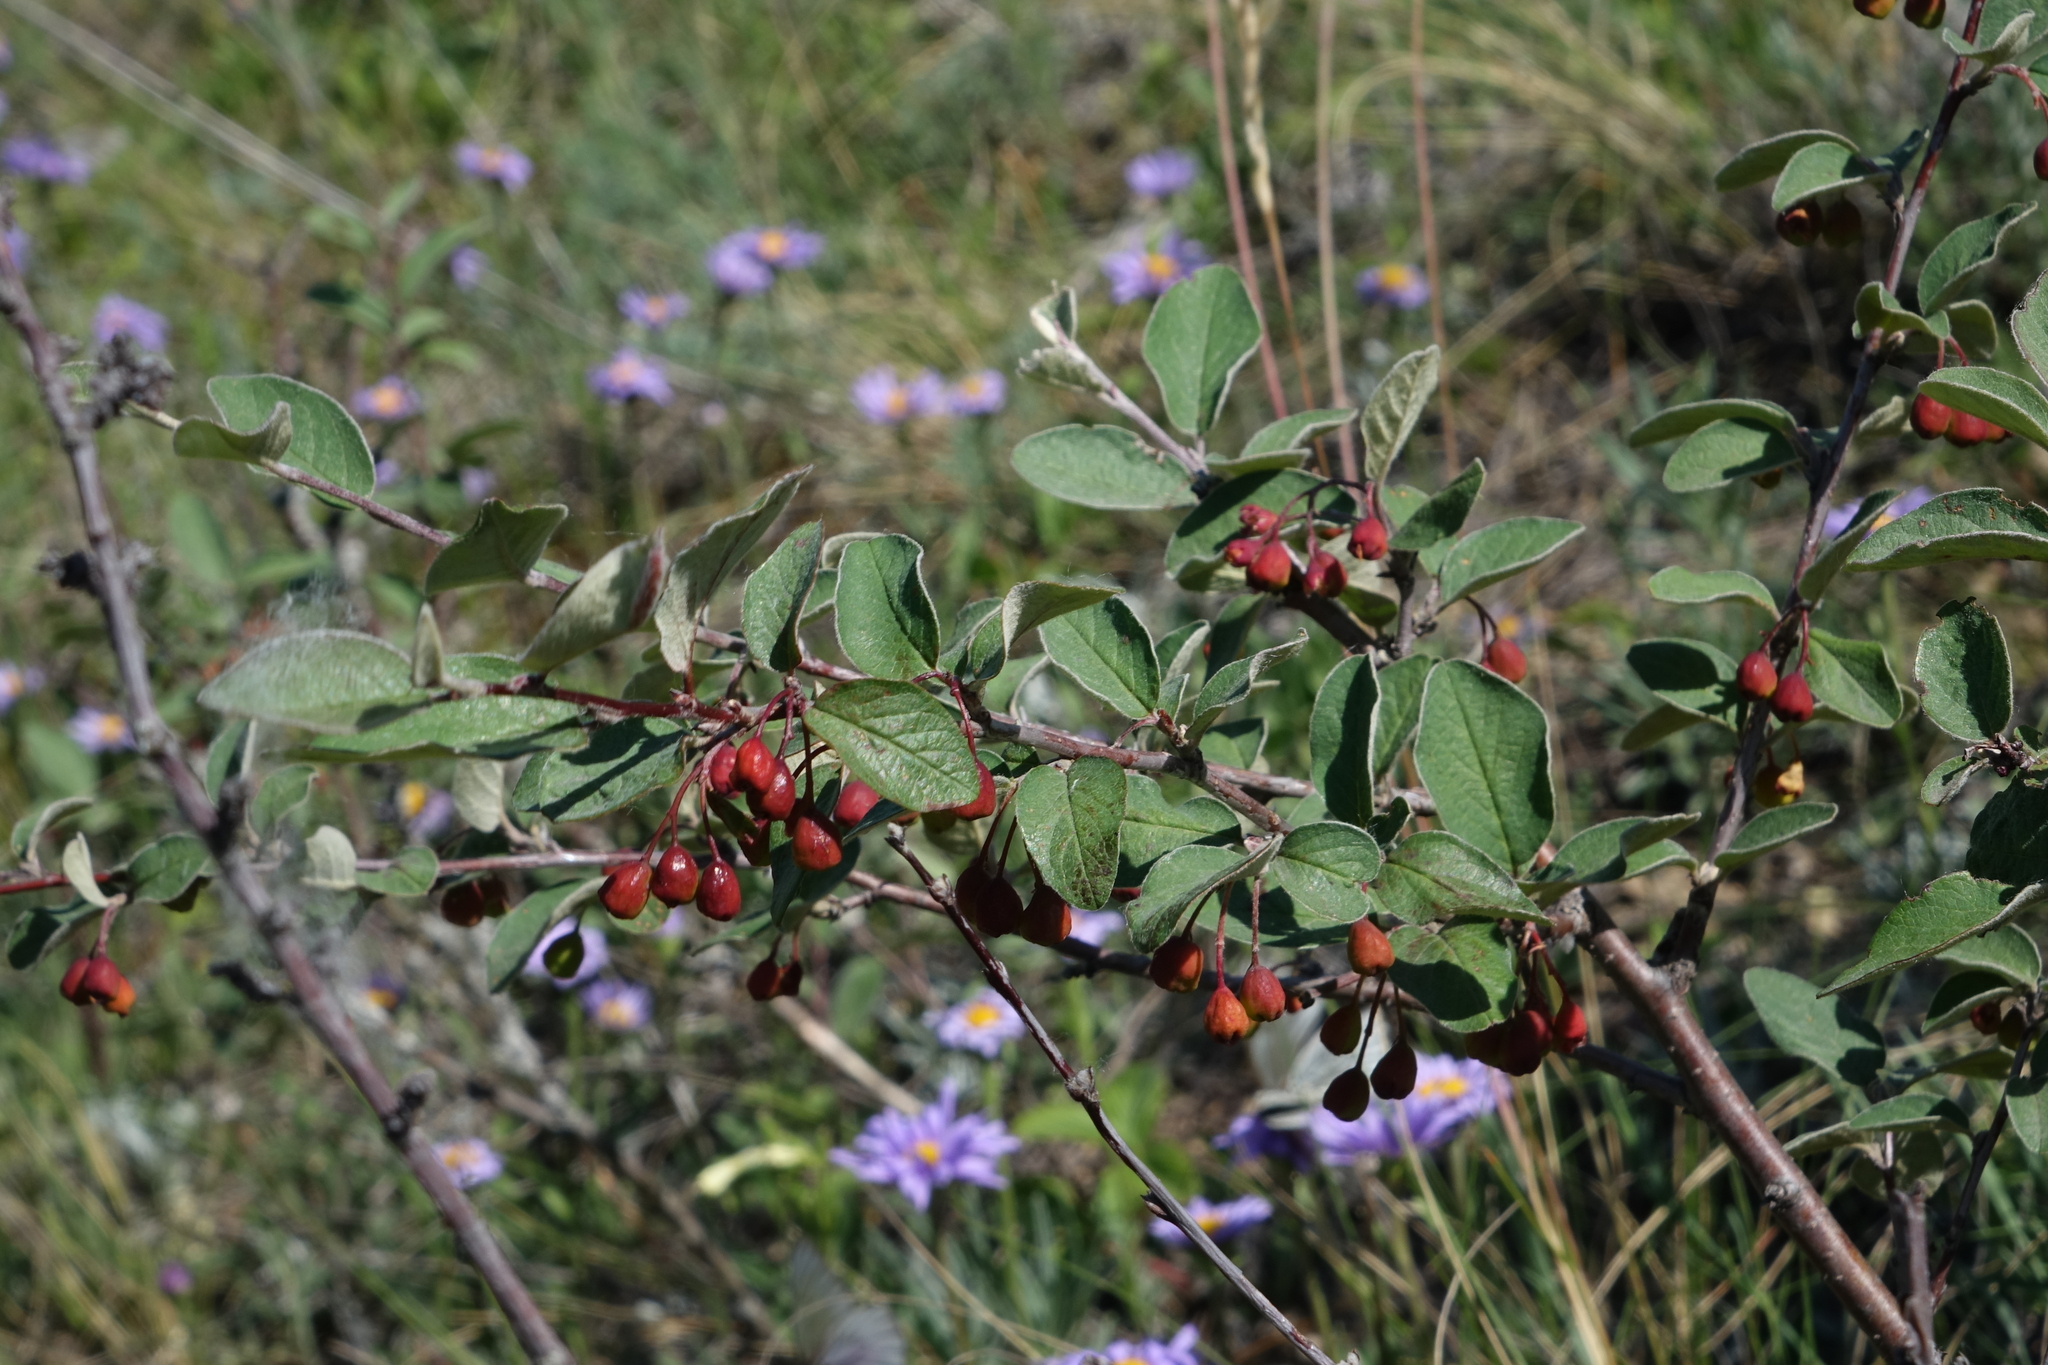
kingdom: Plantae
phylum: Tracheophyta
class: Magnoliopsida
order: Rosales
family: Rosaceae
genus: Cotoneaster
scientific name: Cotoneaster melanocarpus
